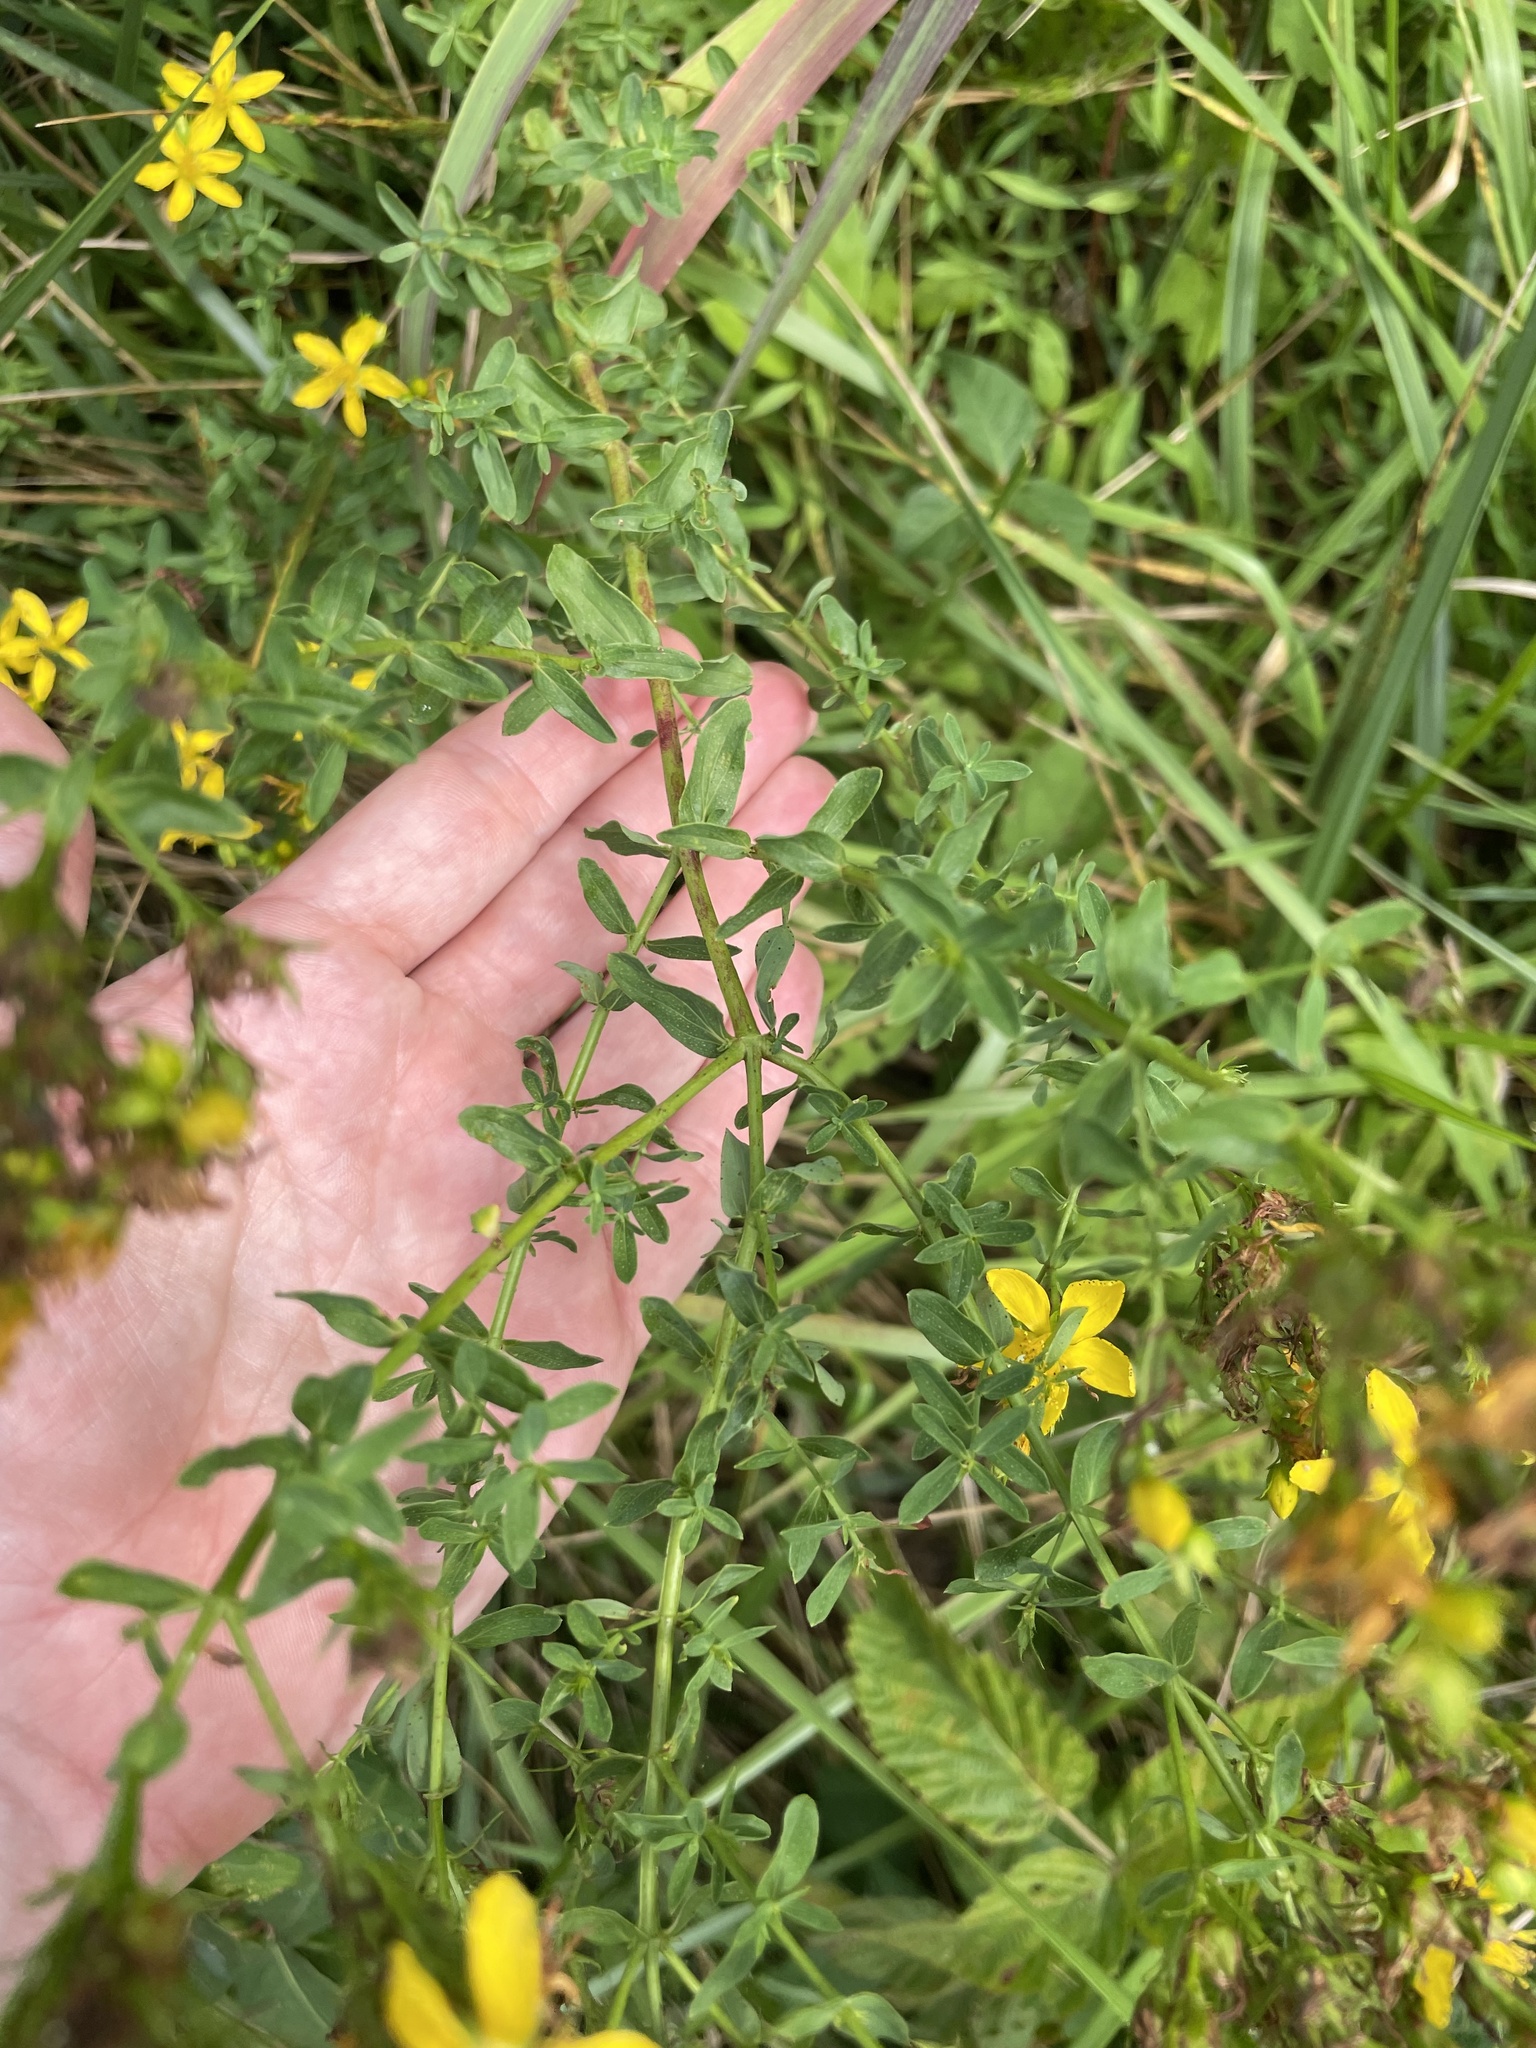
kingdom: Plantae
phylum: Tracheophyta
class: Magnoliopsida
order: Malpighiales
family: Hypericaceae
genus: Hypericum
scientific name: Hypericum perforatum
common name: Common st. johnswort
